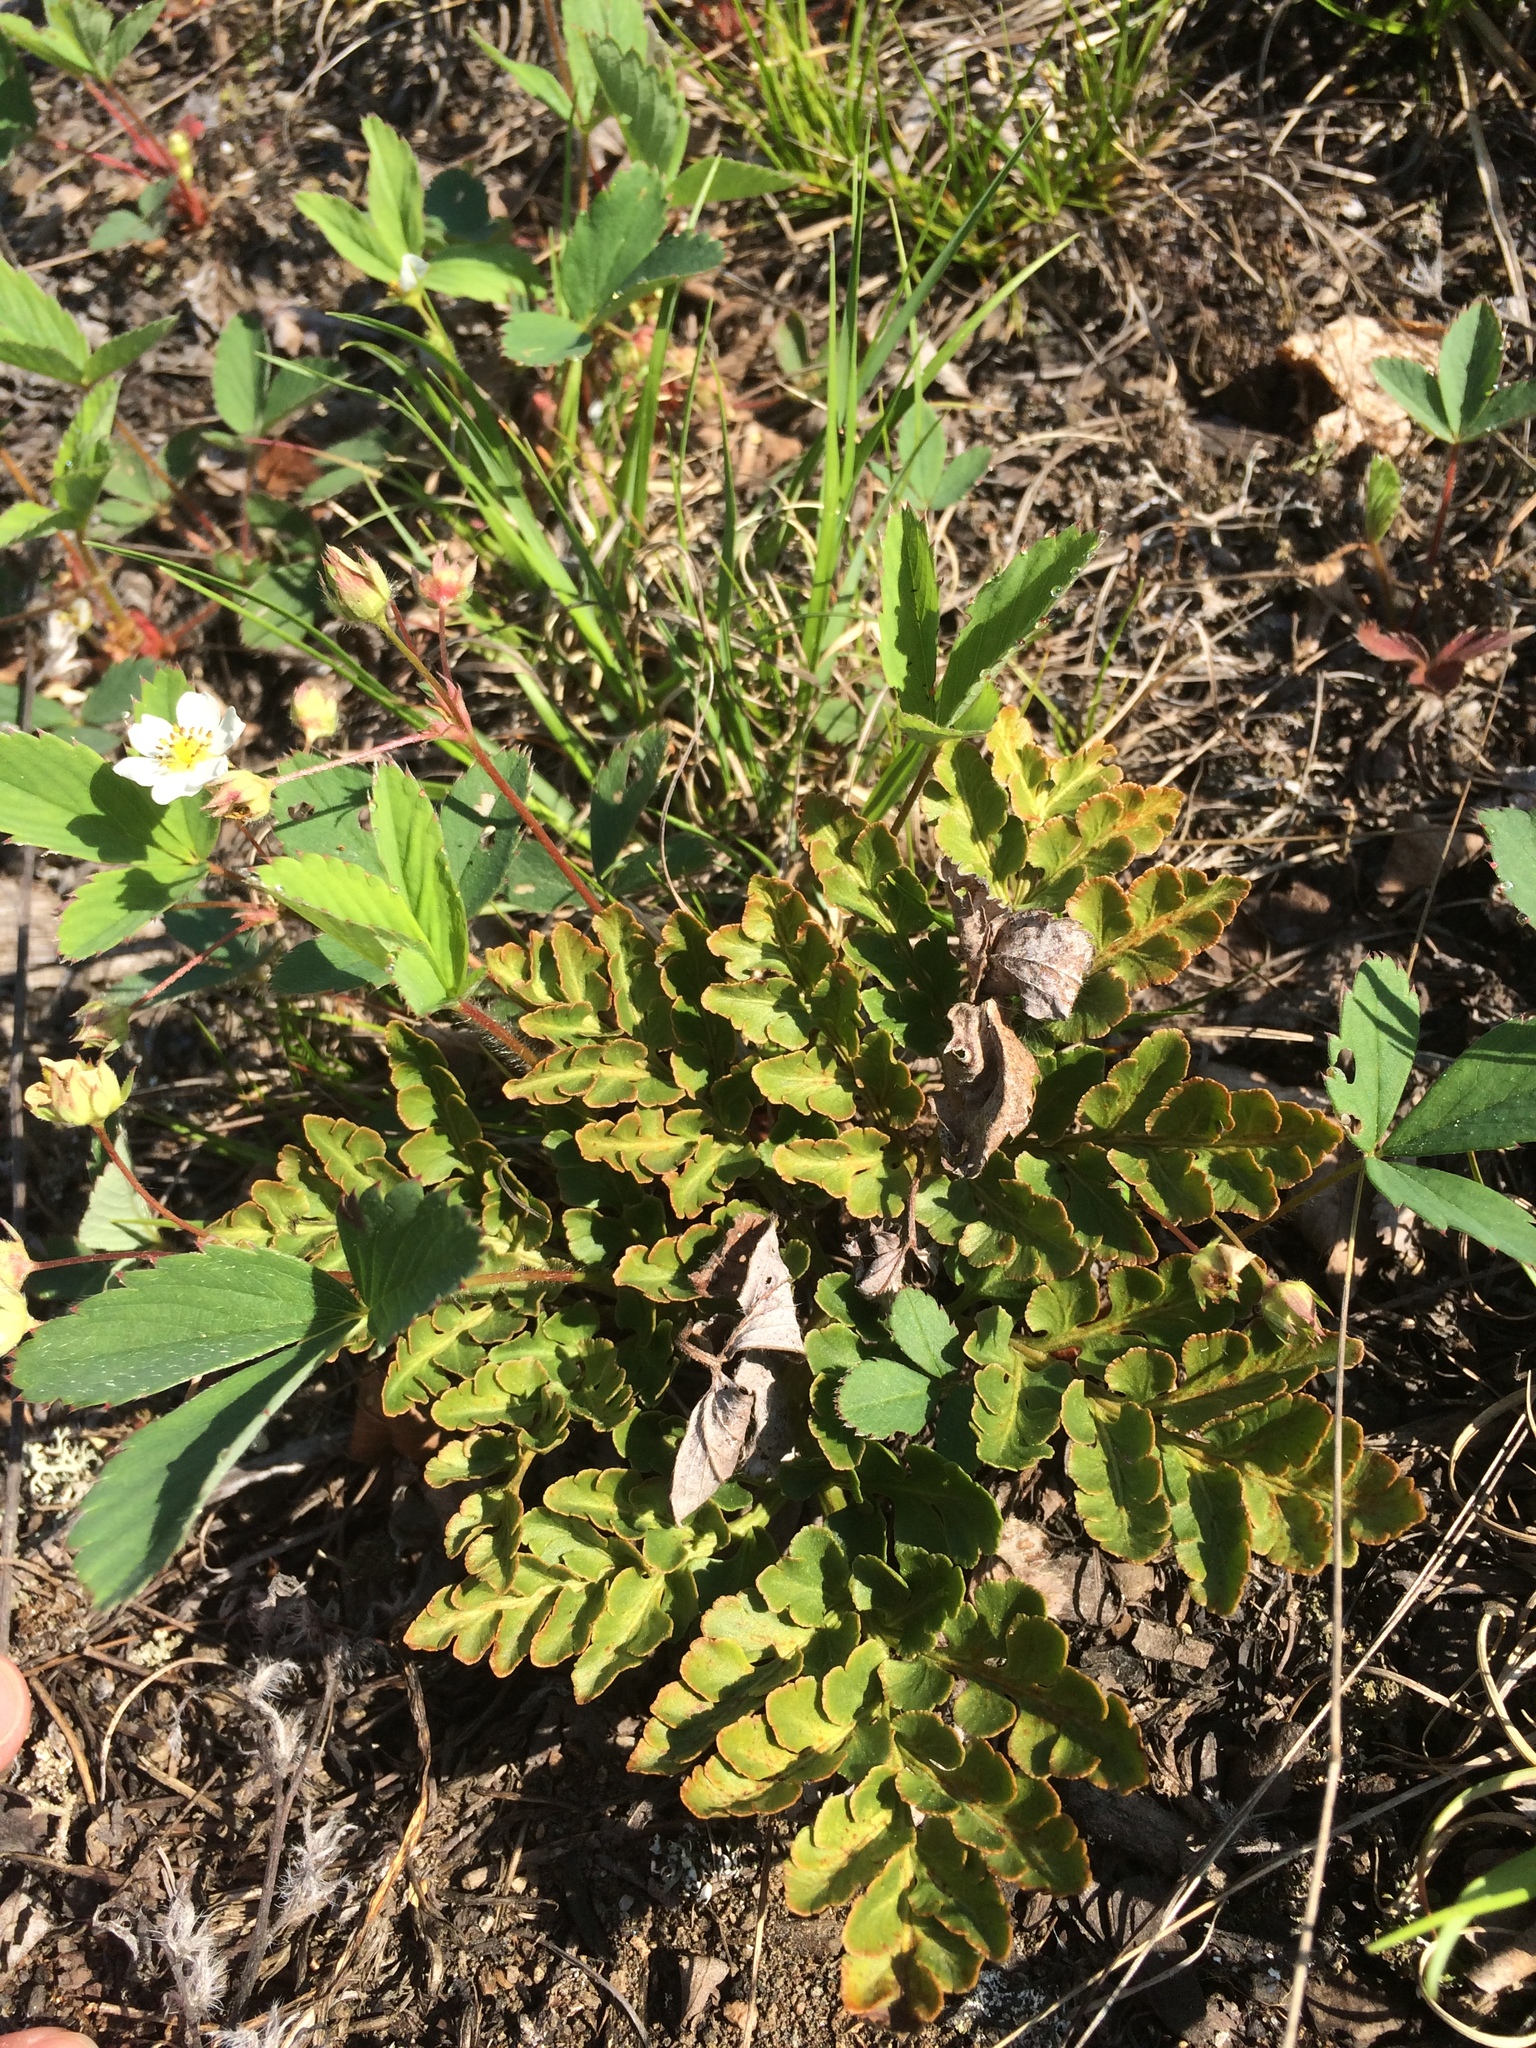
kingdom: Plantae
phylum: Tracheophyta
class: Polypodiopsida
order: Ophioglossales
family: Ophioglossaceae
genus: Sceptridium
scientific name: Sceptridium multifidum
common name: Leathery grape fern
